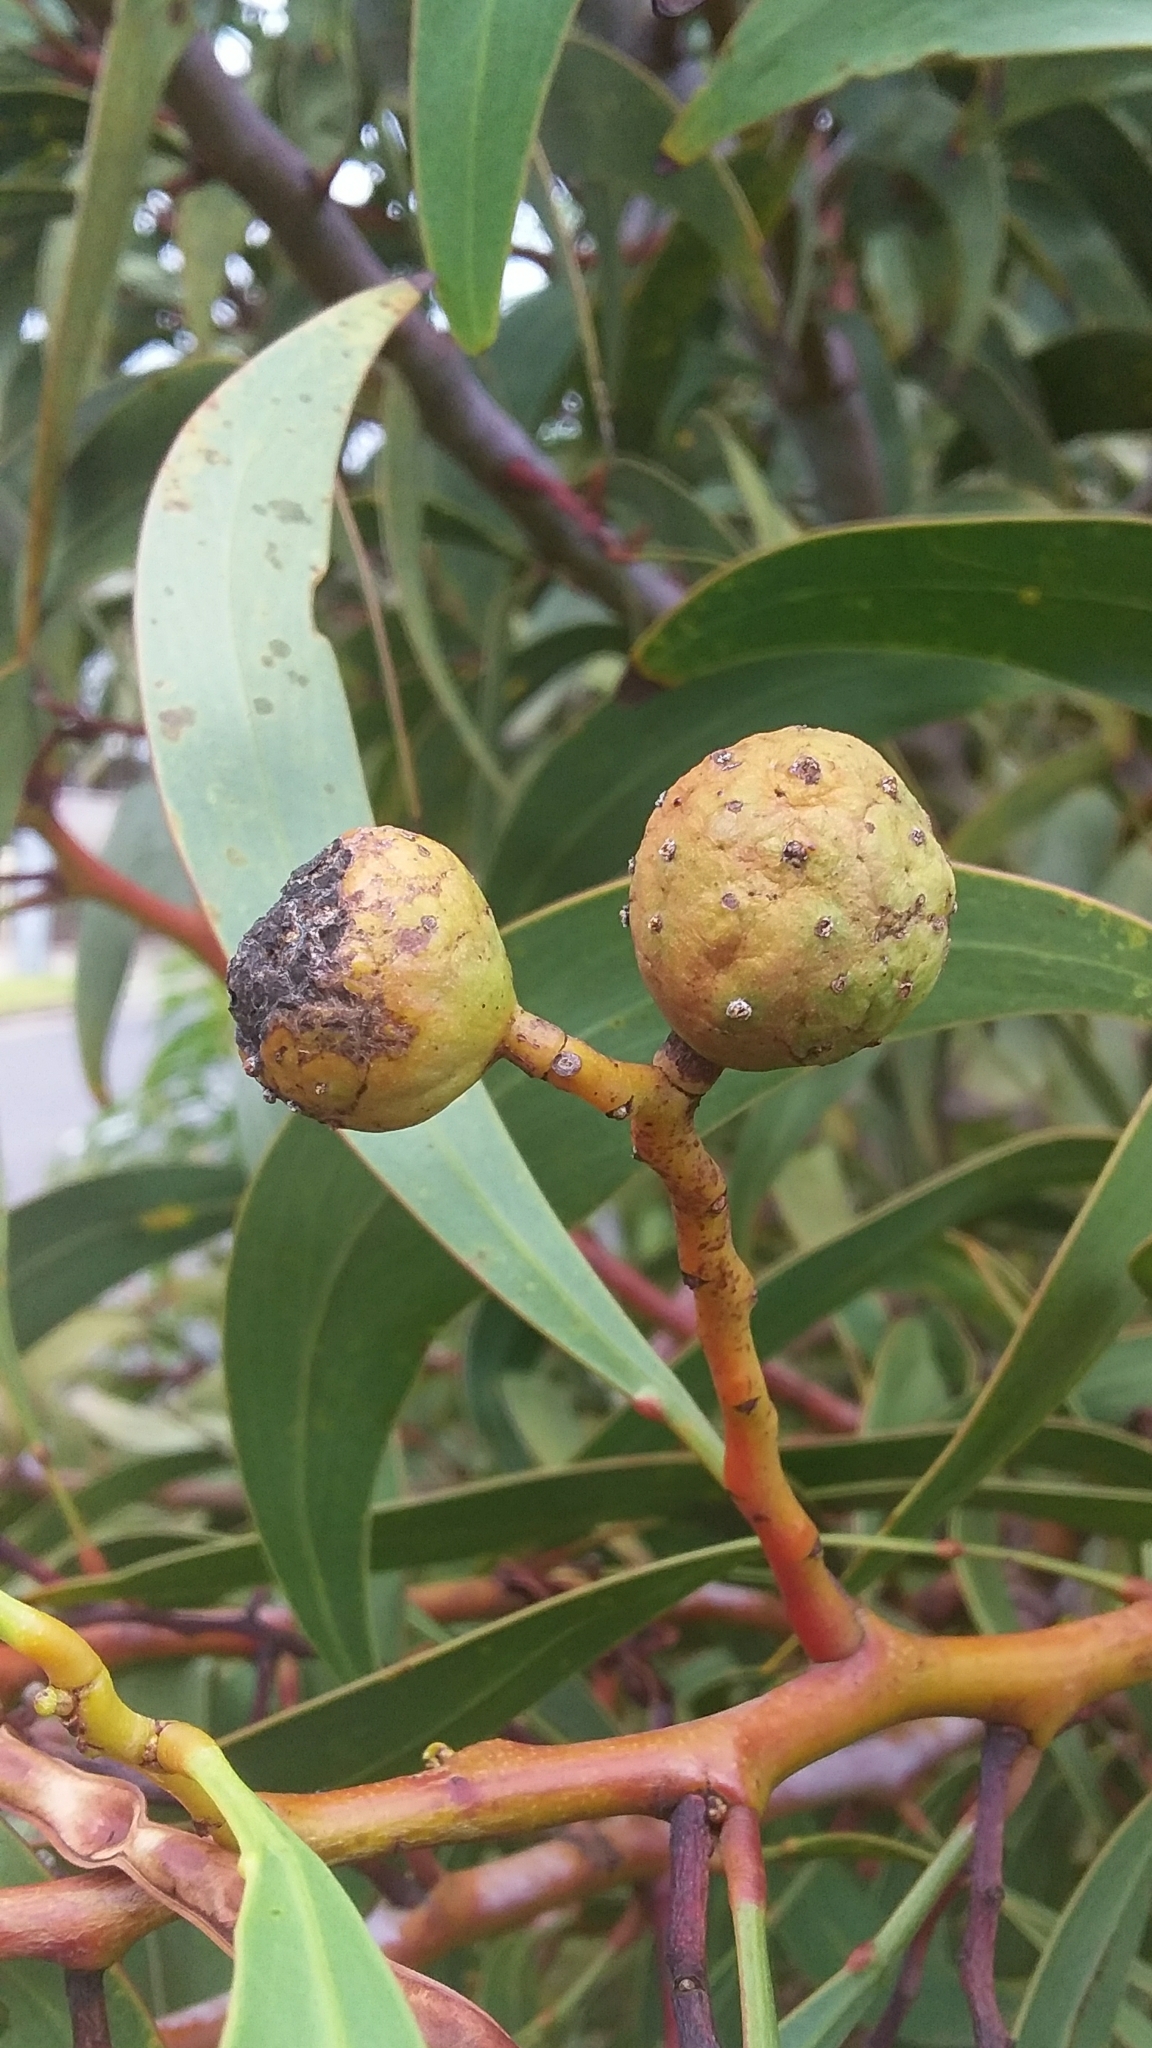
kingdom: Animalia
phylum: Arthropoda
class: Insecta
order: Hymenoptera
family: Pteromalidae
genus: Trichilogaster
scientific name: Trichilogaster signiventris
